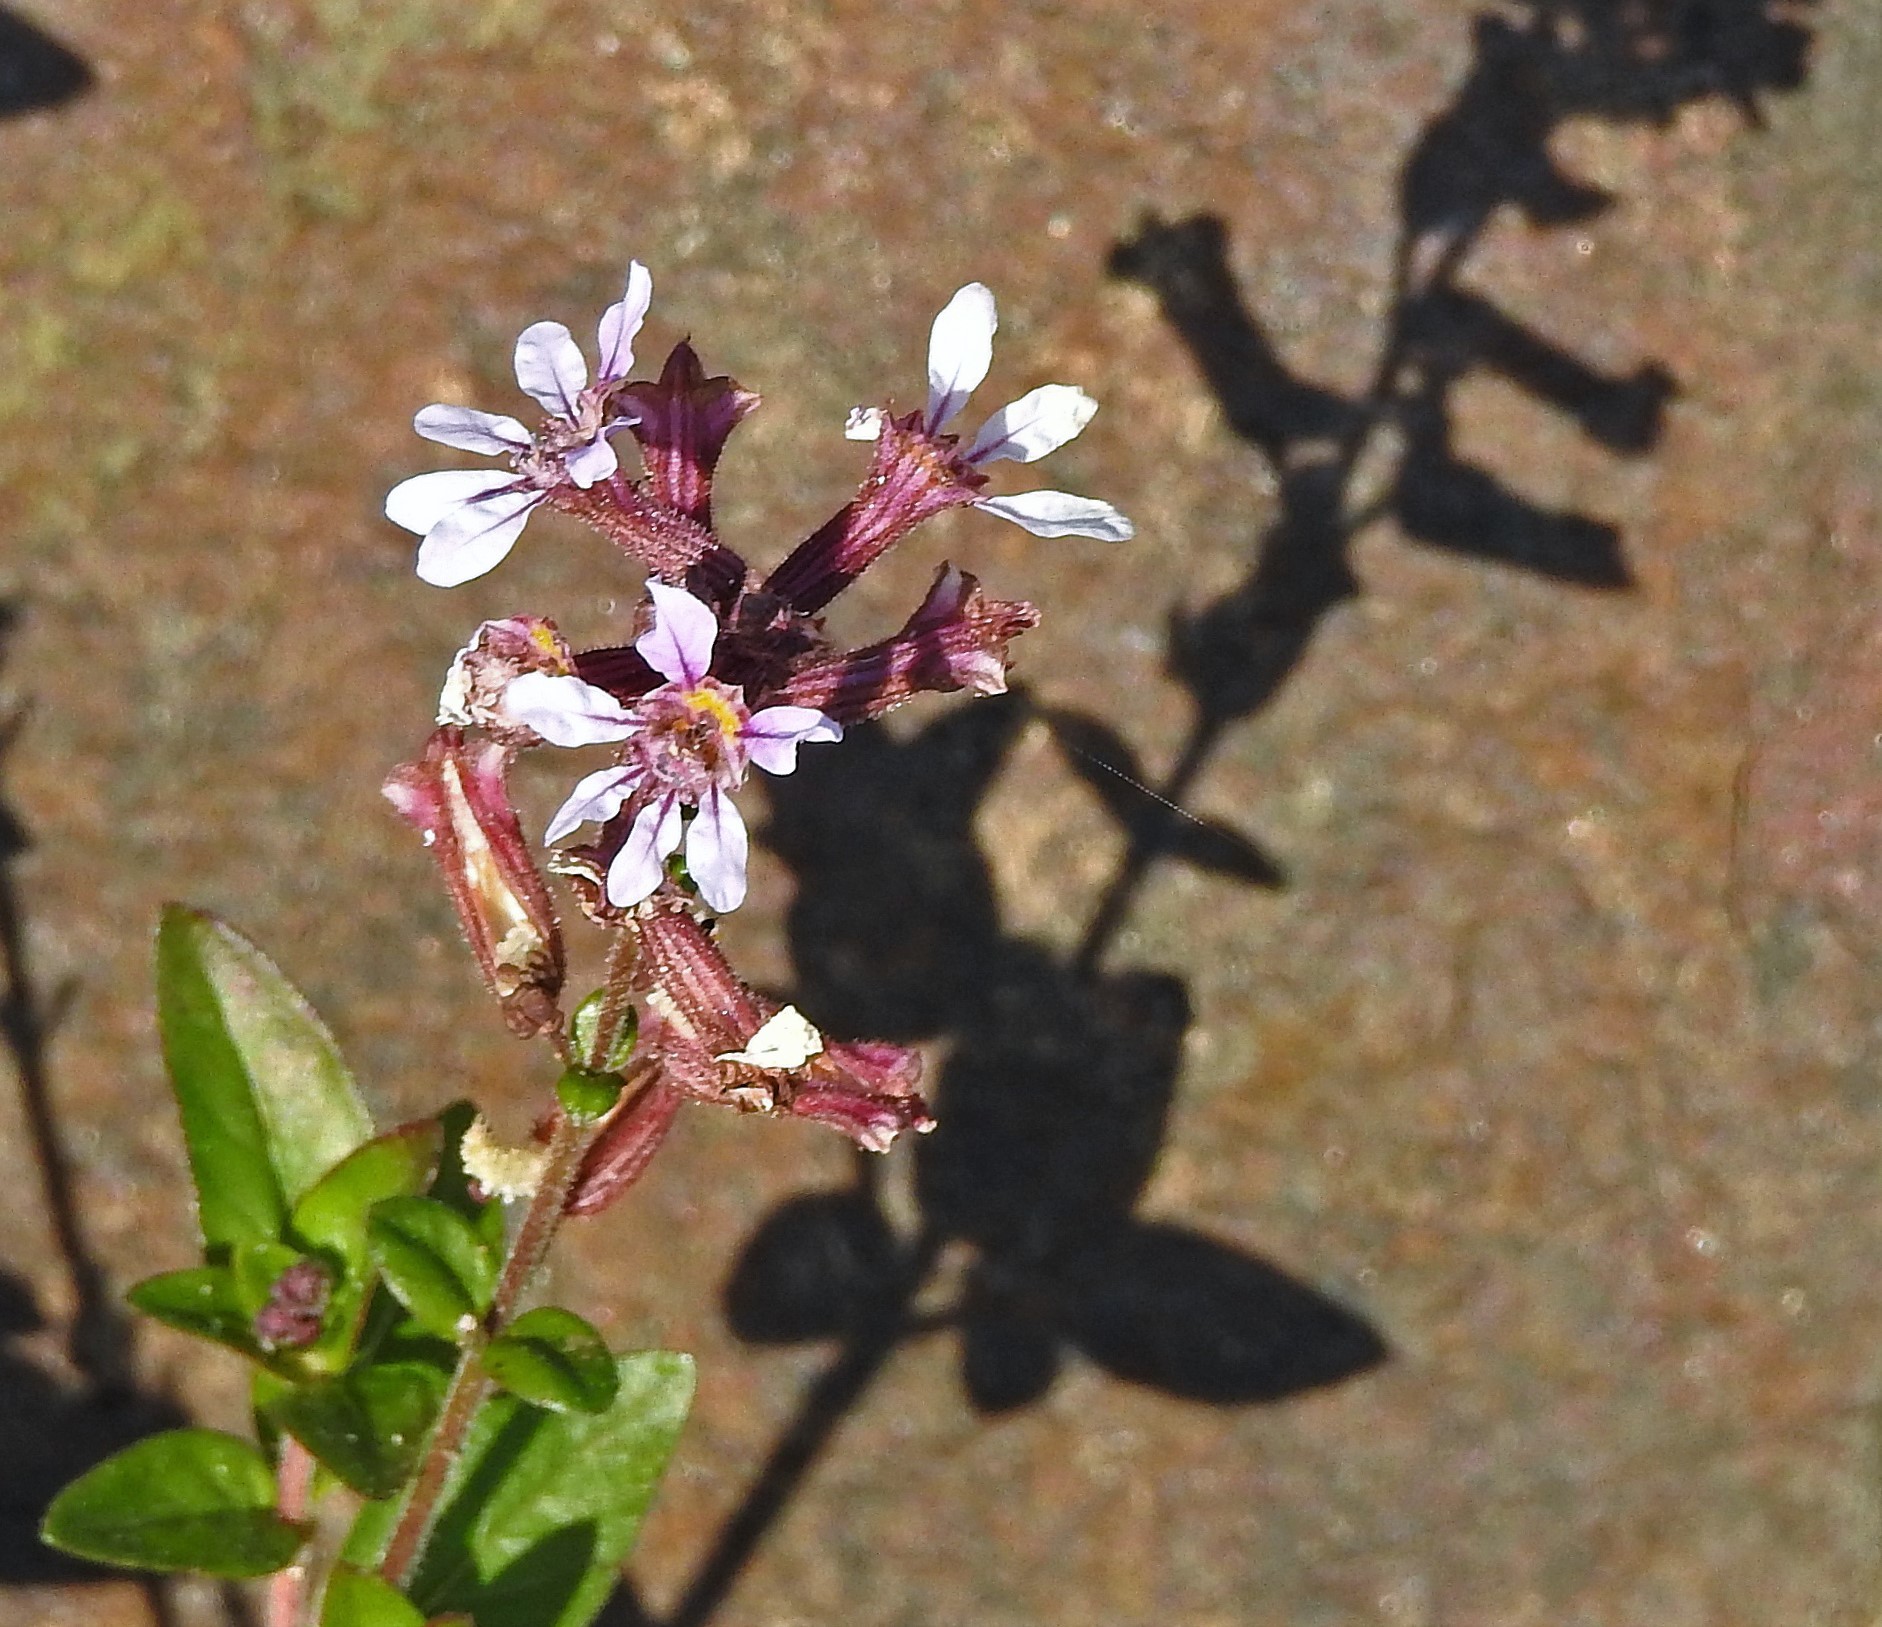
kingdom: Plantae
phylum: Tracheophyta
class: Magnoliopsida
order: Myrtales
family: Lythraceae
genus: Cuphea
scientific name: Cuphea racemosa
